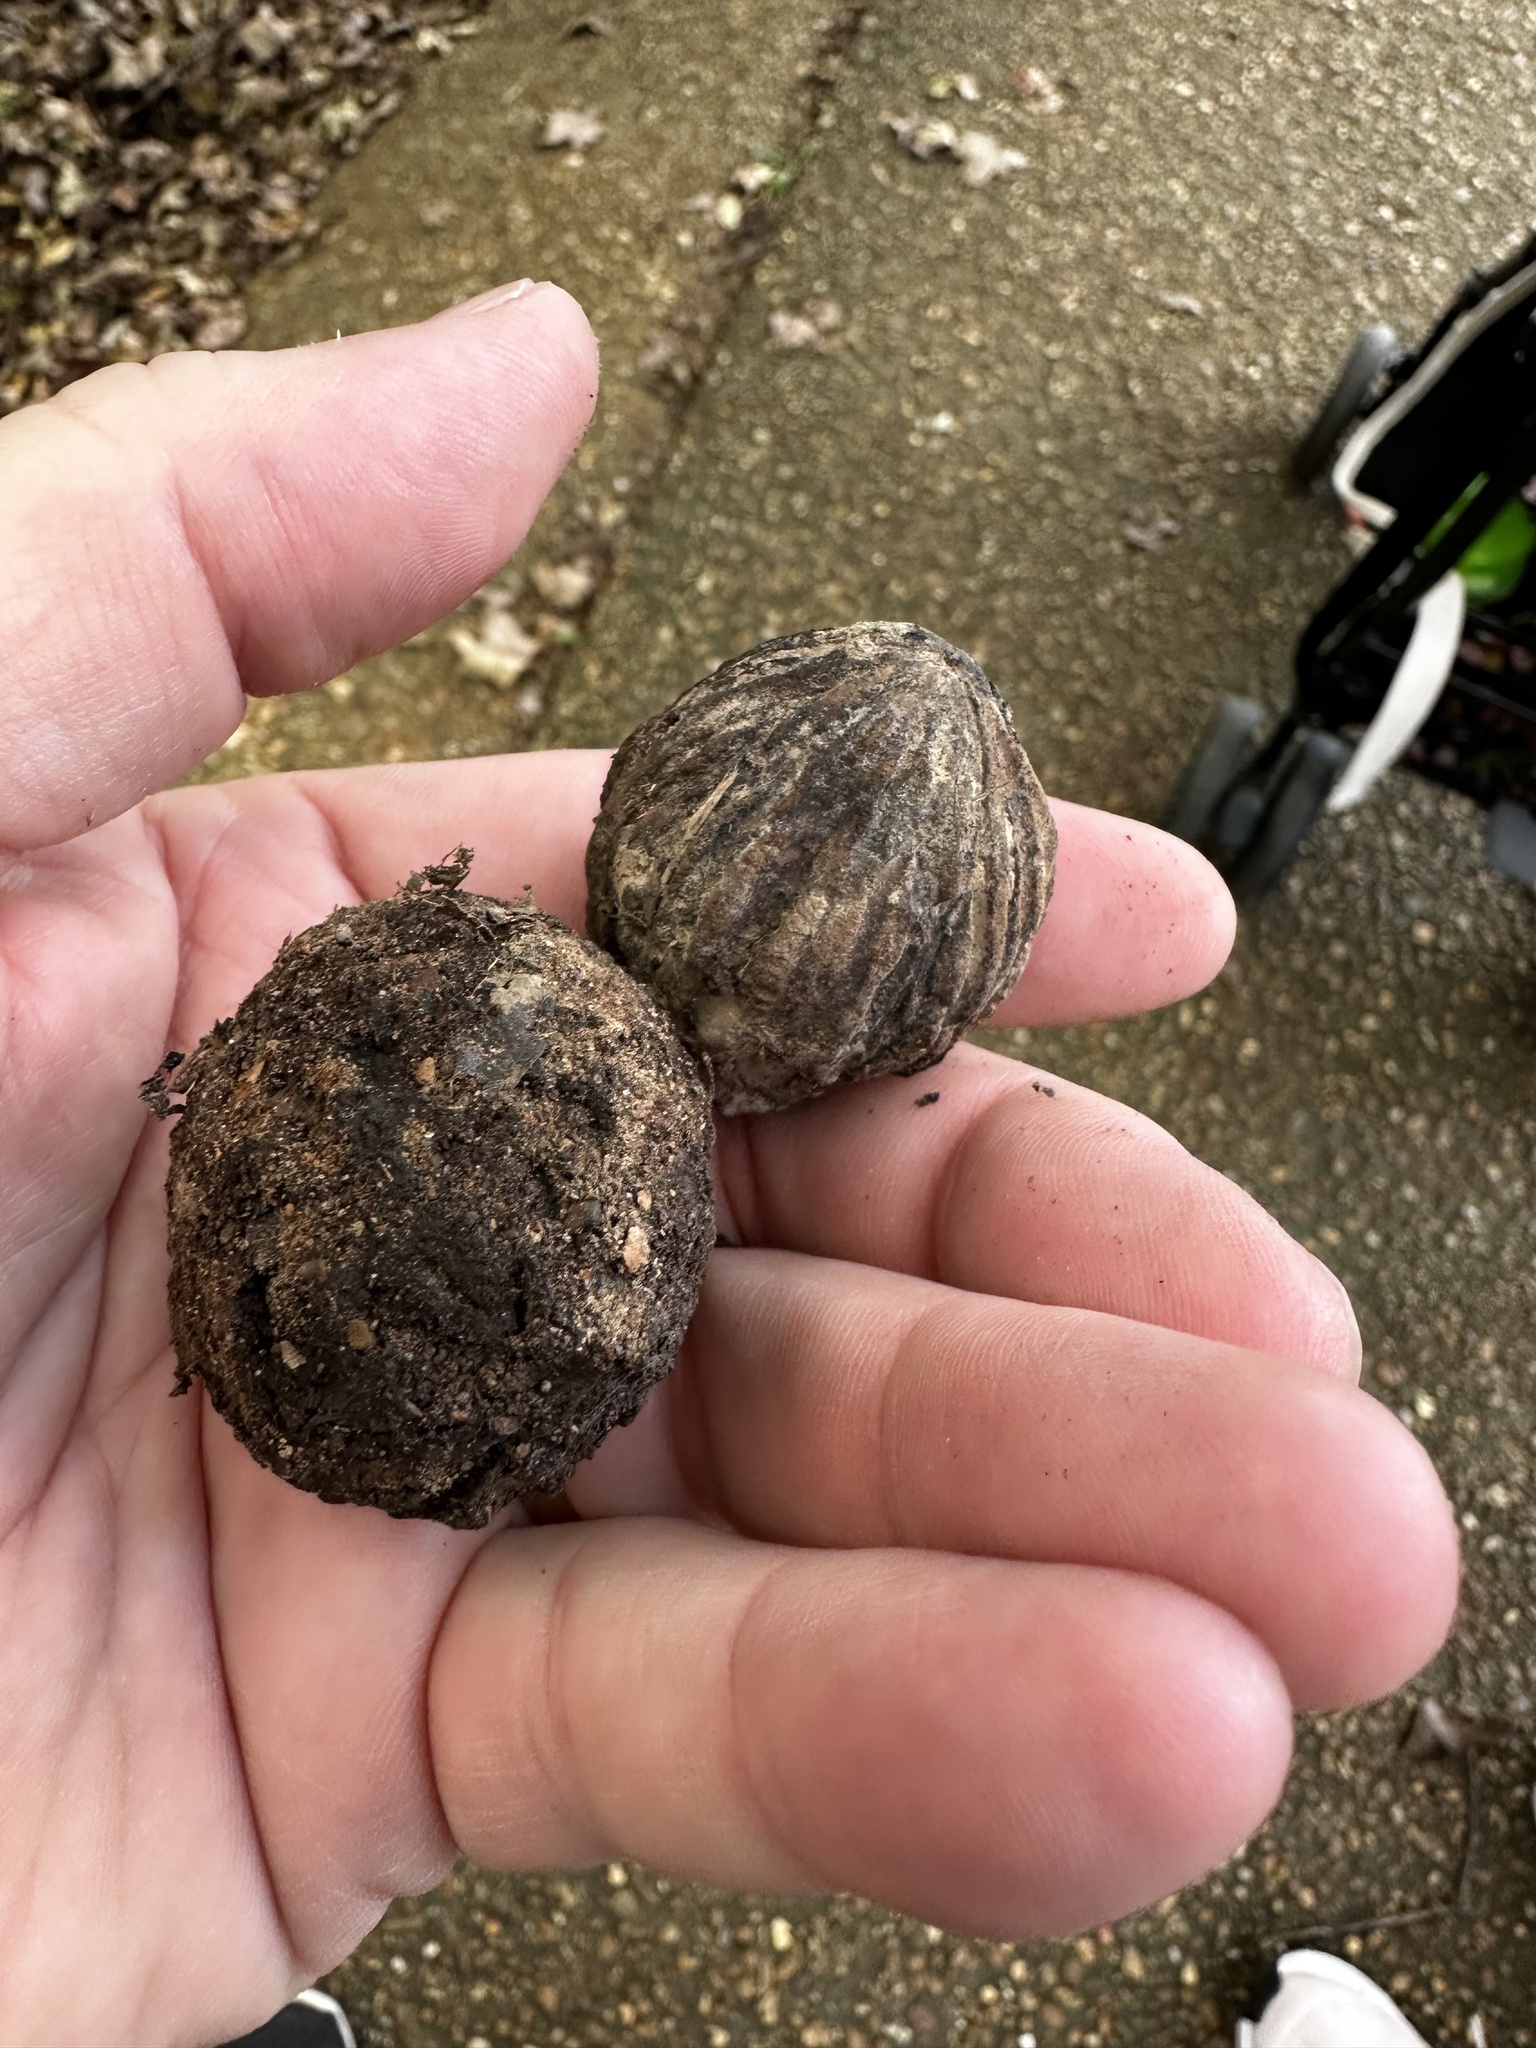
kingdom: Plantae
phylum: Tracheophyta
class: Magnoliopsida
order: Fagales
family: Juglandaceae
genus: Juglans
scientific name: Juglans nigra
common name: Black walnut
